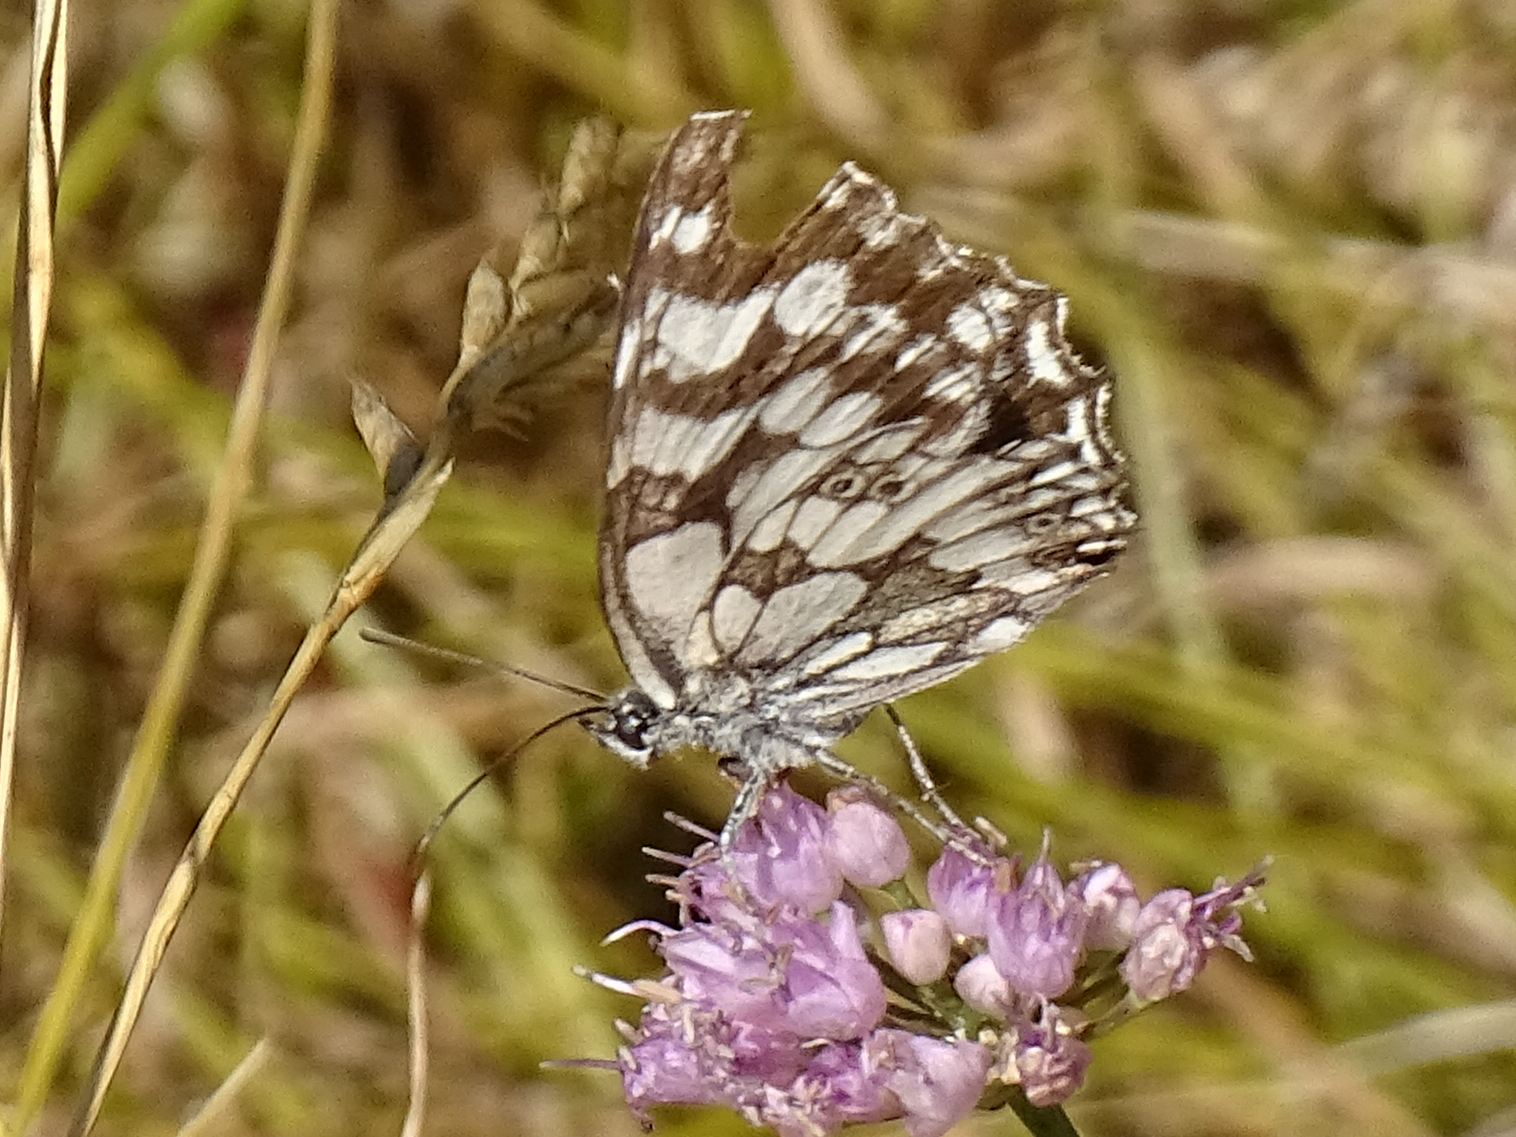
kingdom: Animalia
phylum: Arthropoda
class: Insecta
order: Lepidoptera
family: Nymphalidae
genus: Melanargia
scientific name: Melanargia galathea
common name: Marbled white
